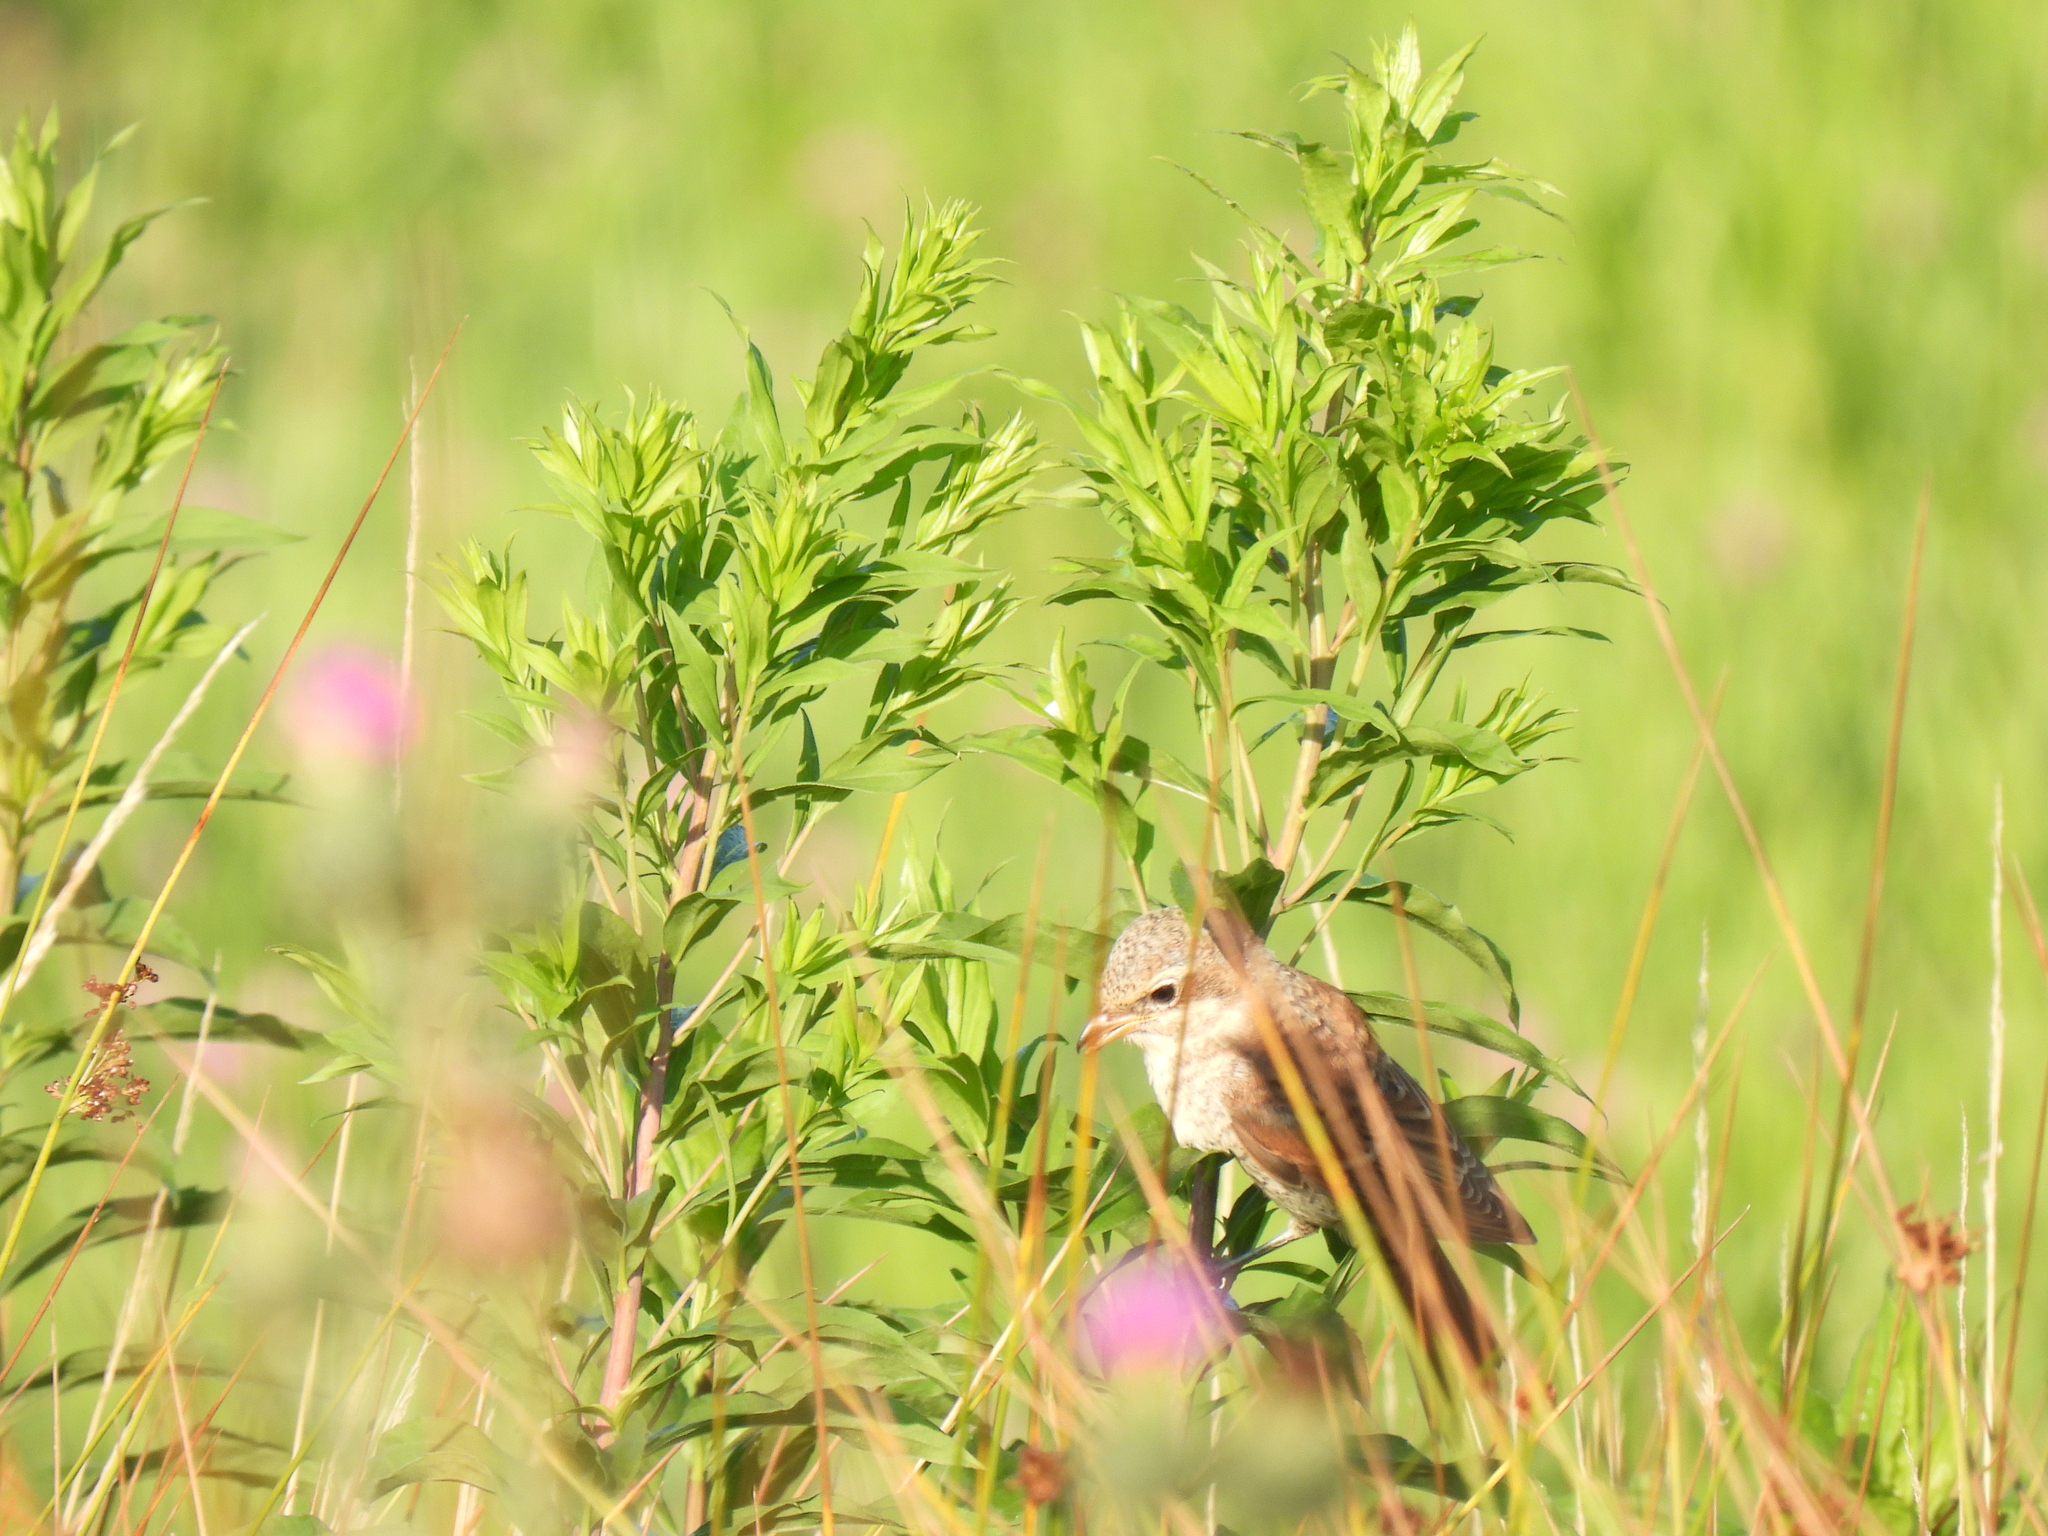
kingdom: Animalia
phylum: Chordata
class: Aves
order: Passeriformes
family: Laniidae
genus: Lanius
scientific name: Lanius collurio
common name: Red-backed shrike
